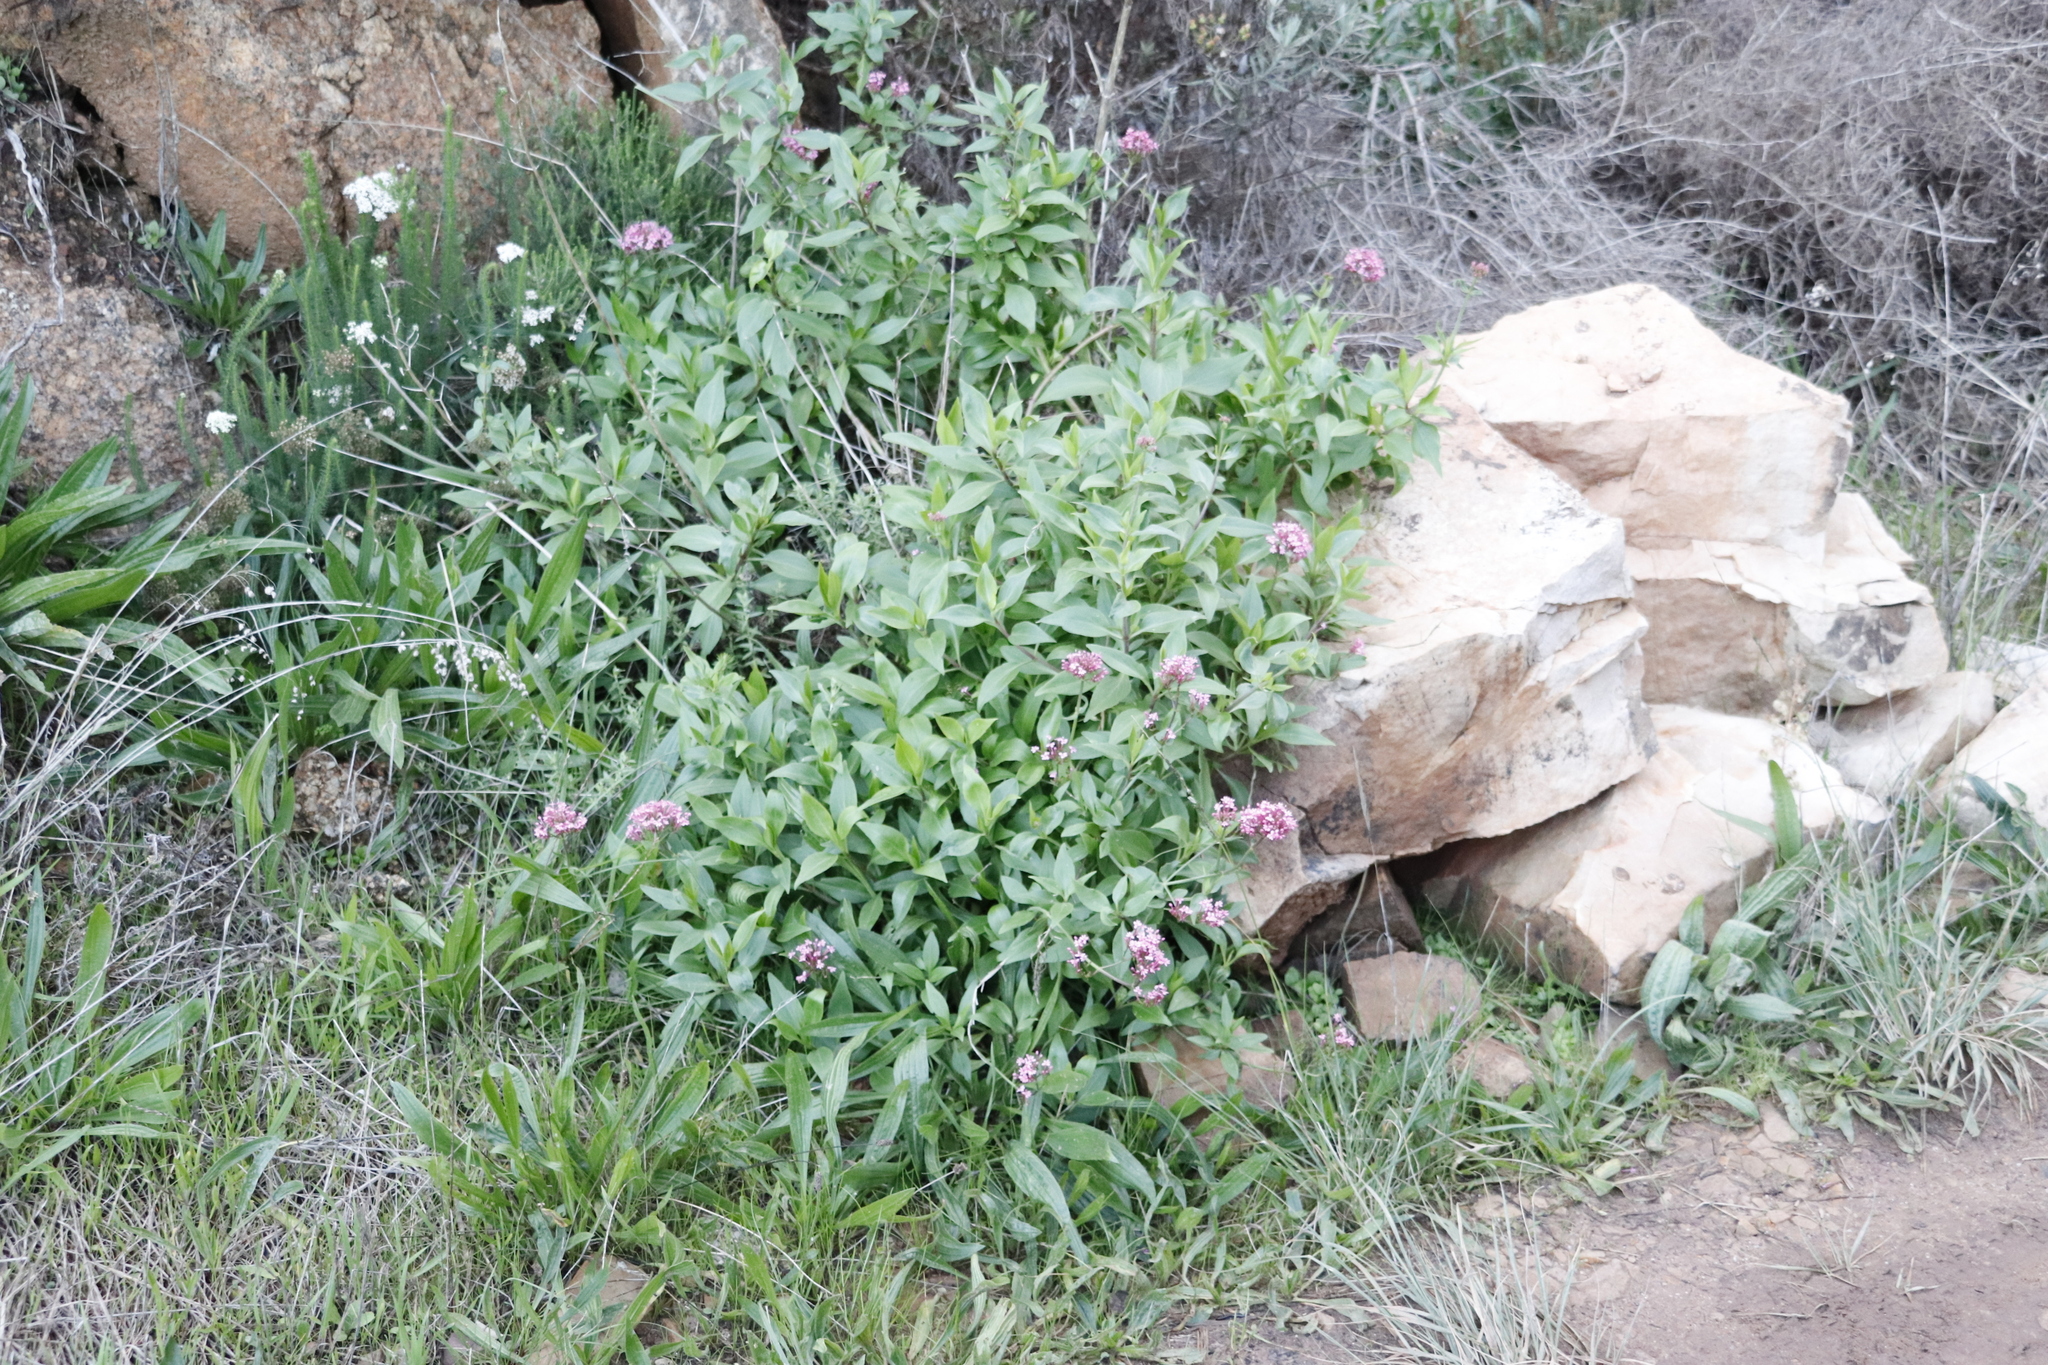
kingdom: Plantae
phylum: Tracheophyta
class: Magnoliopsida
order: Dipsacales
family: Caprifoliaceae
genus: Centranthus
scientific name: Centranthus ruber
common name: Red valerian
